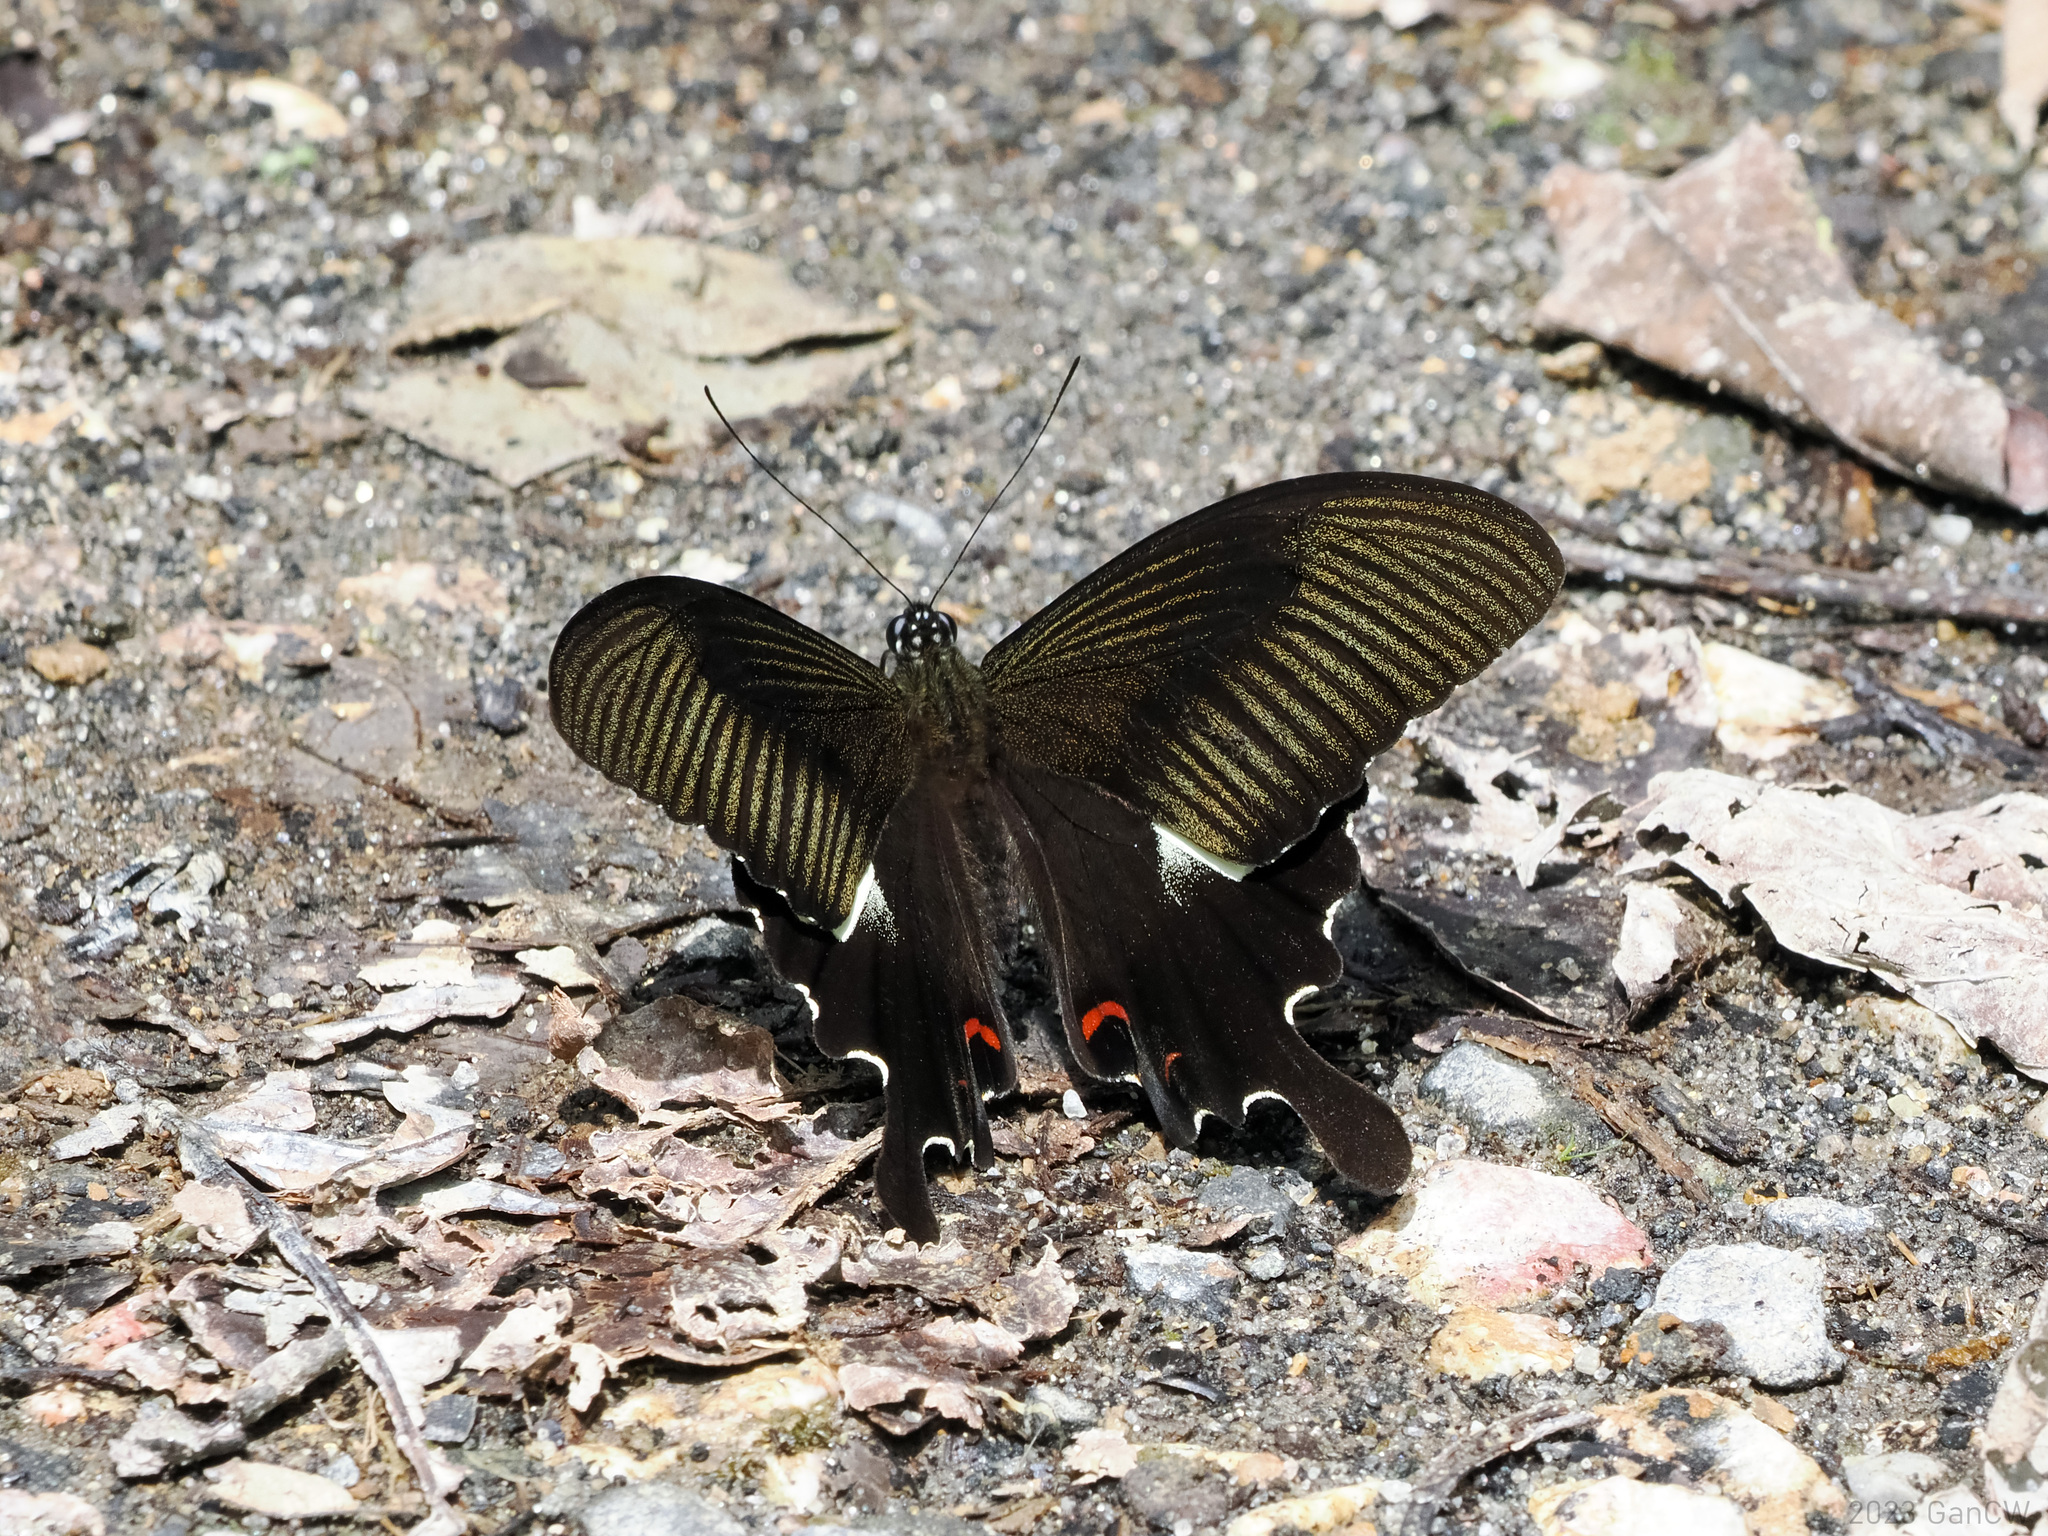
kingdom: Animalia
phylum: Arthropoda
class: Insecta
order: Lepidoptera
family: Papilionidae
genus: Papilio
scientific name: Papilio iswaroides
